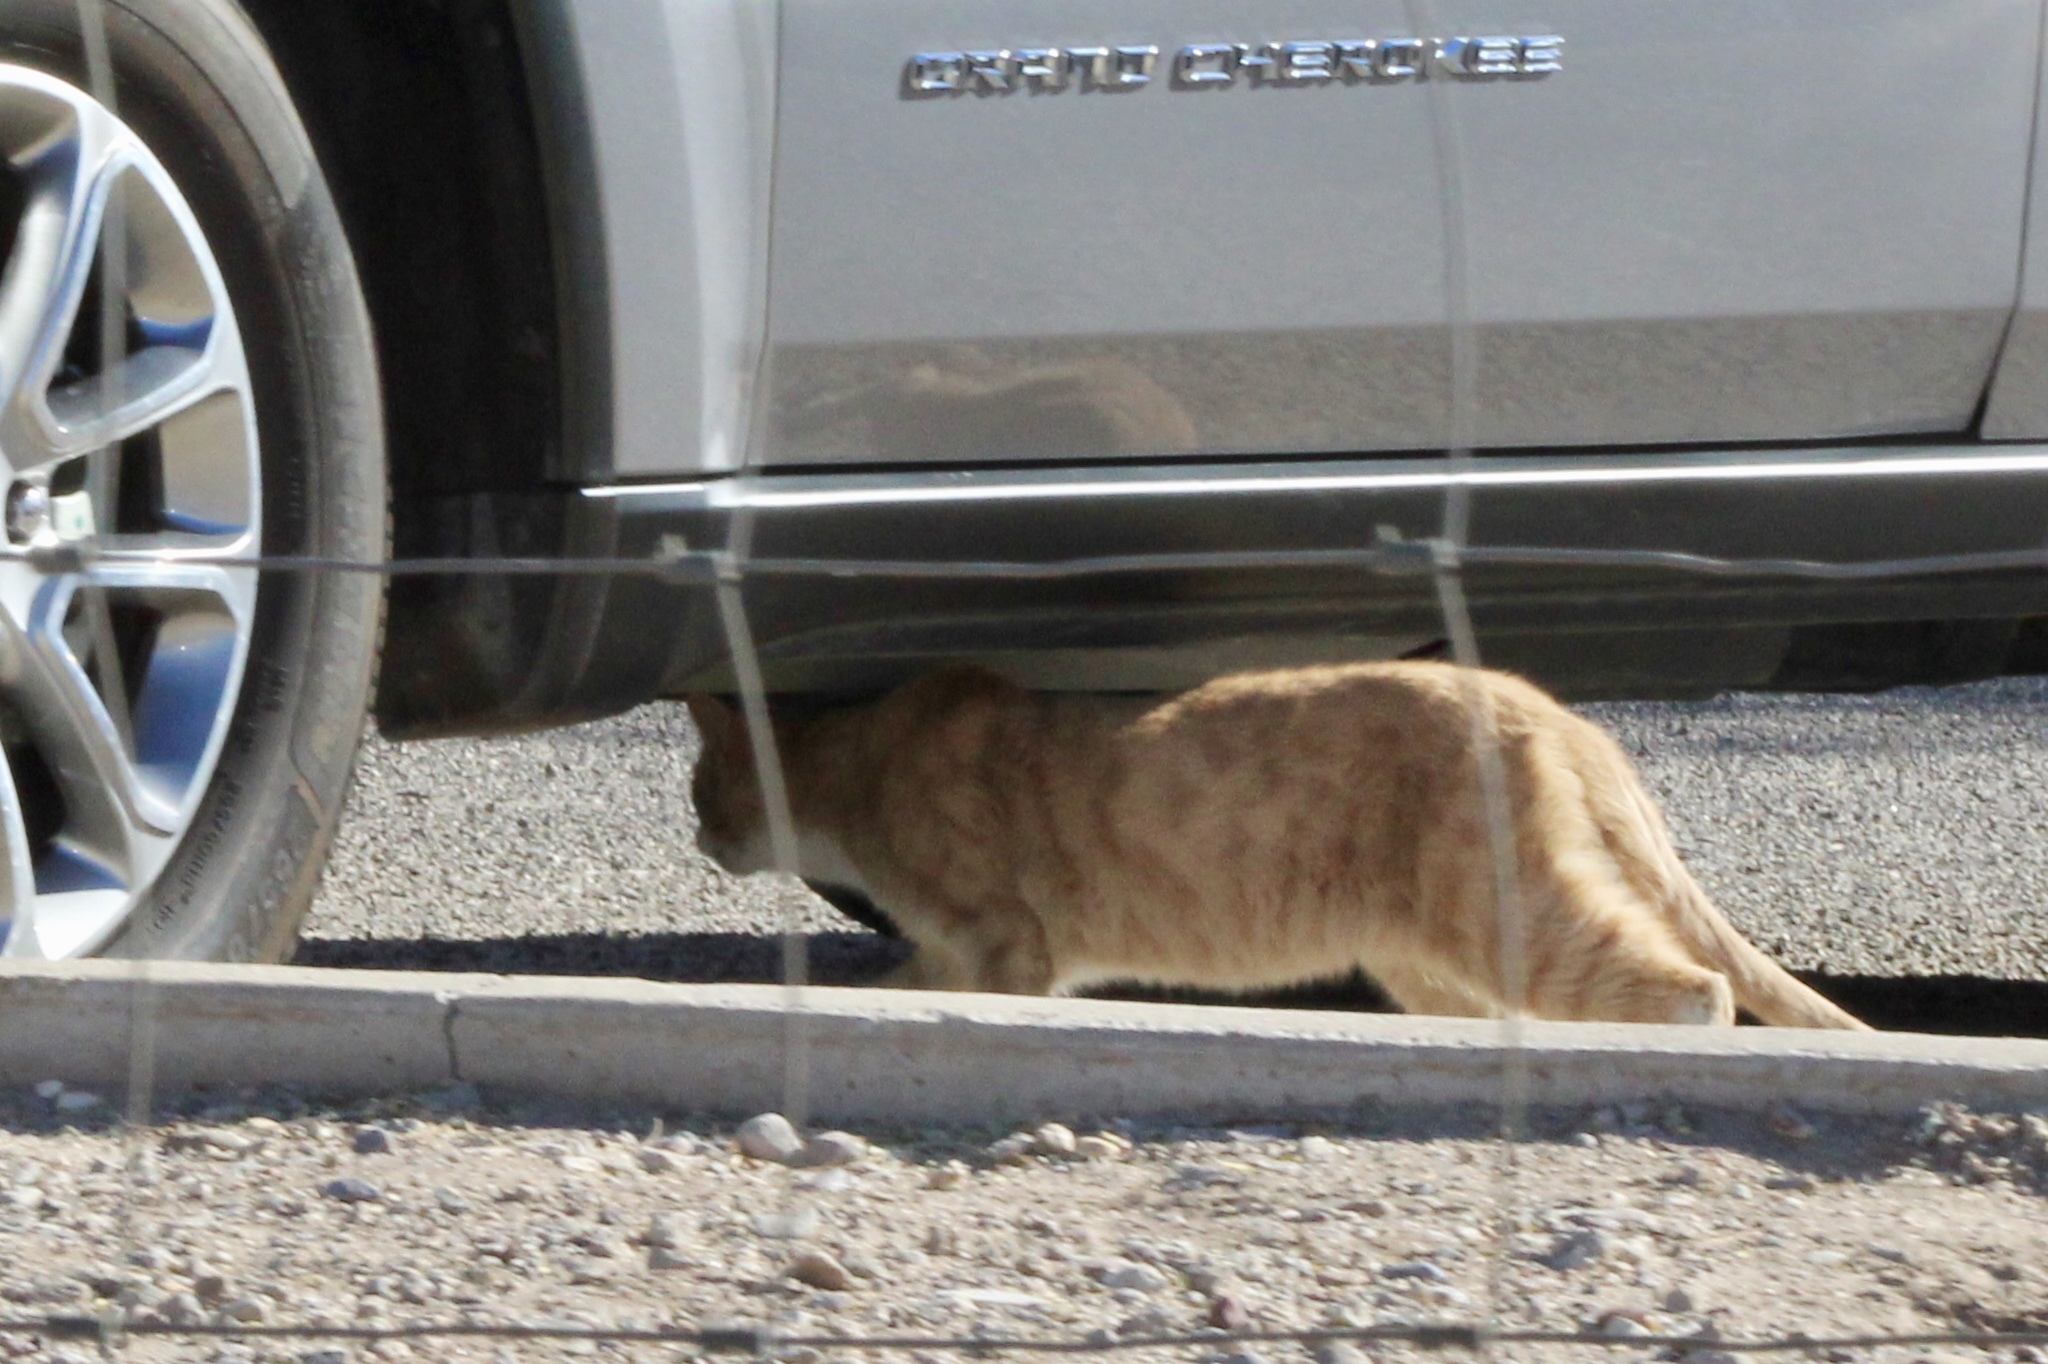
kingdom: Animalia
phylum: Chordata
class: Mammalia
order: Carnivora
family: Felidae
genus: Felis
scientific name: Felis catus
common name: Domestic cat
